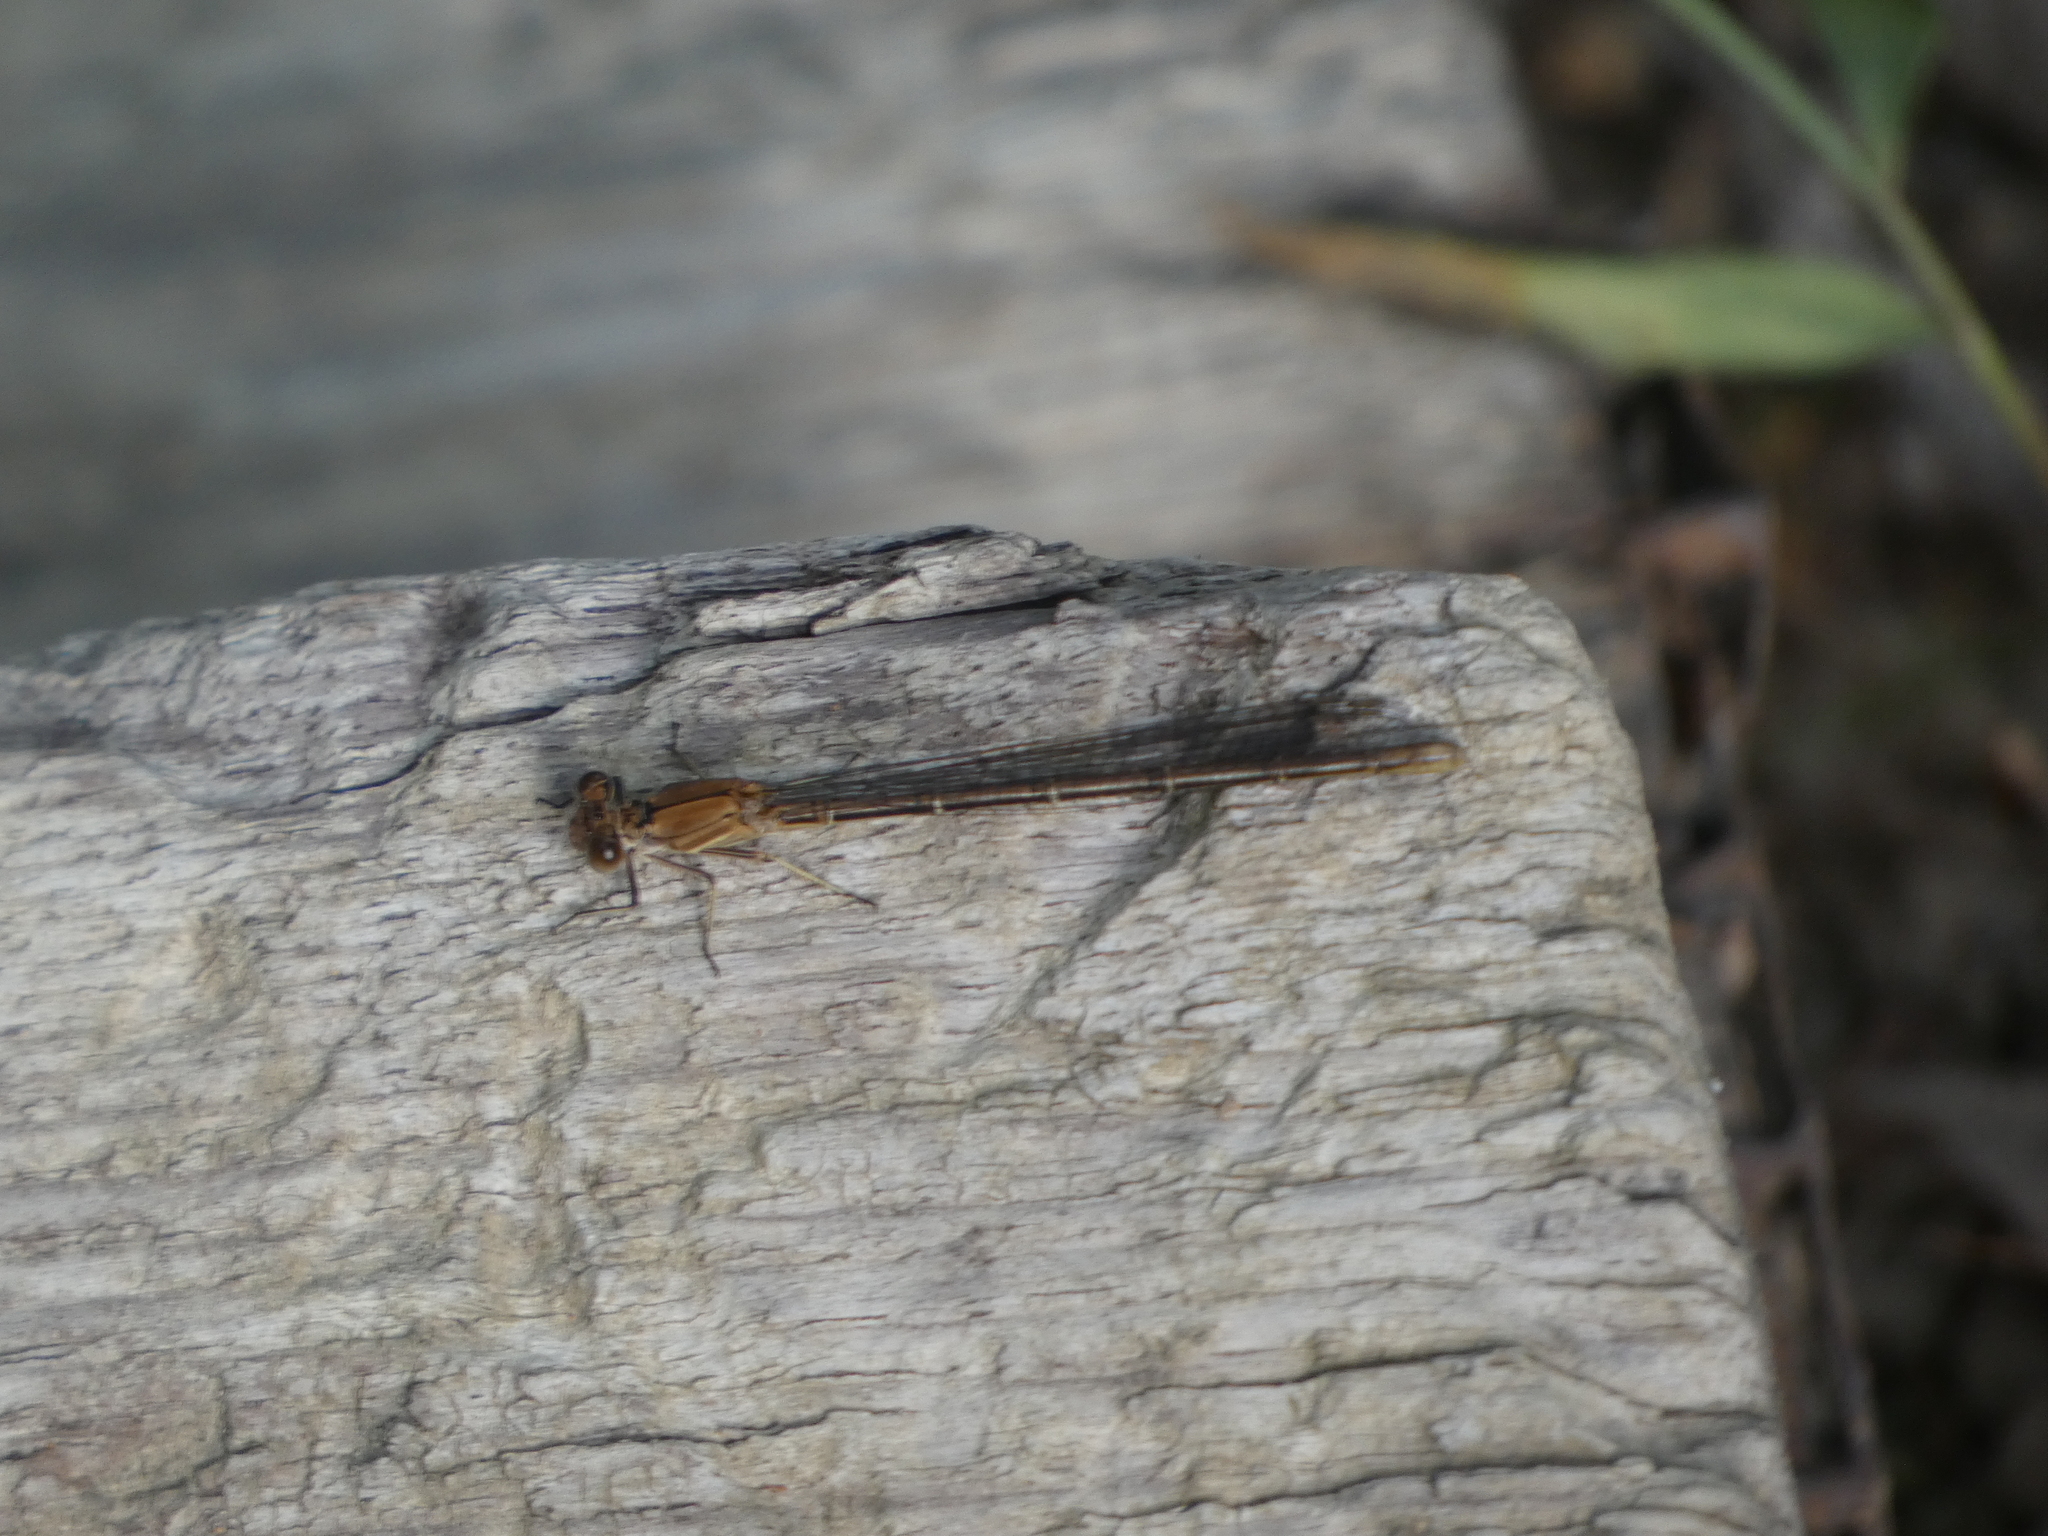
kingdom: Animalia
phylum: Arthropoda
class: Insecta
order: Odonata
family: Coenagrionidae
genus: Argia
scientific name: Argia moesta
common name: Powdered dancer
